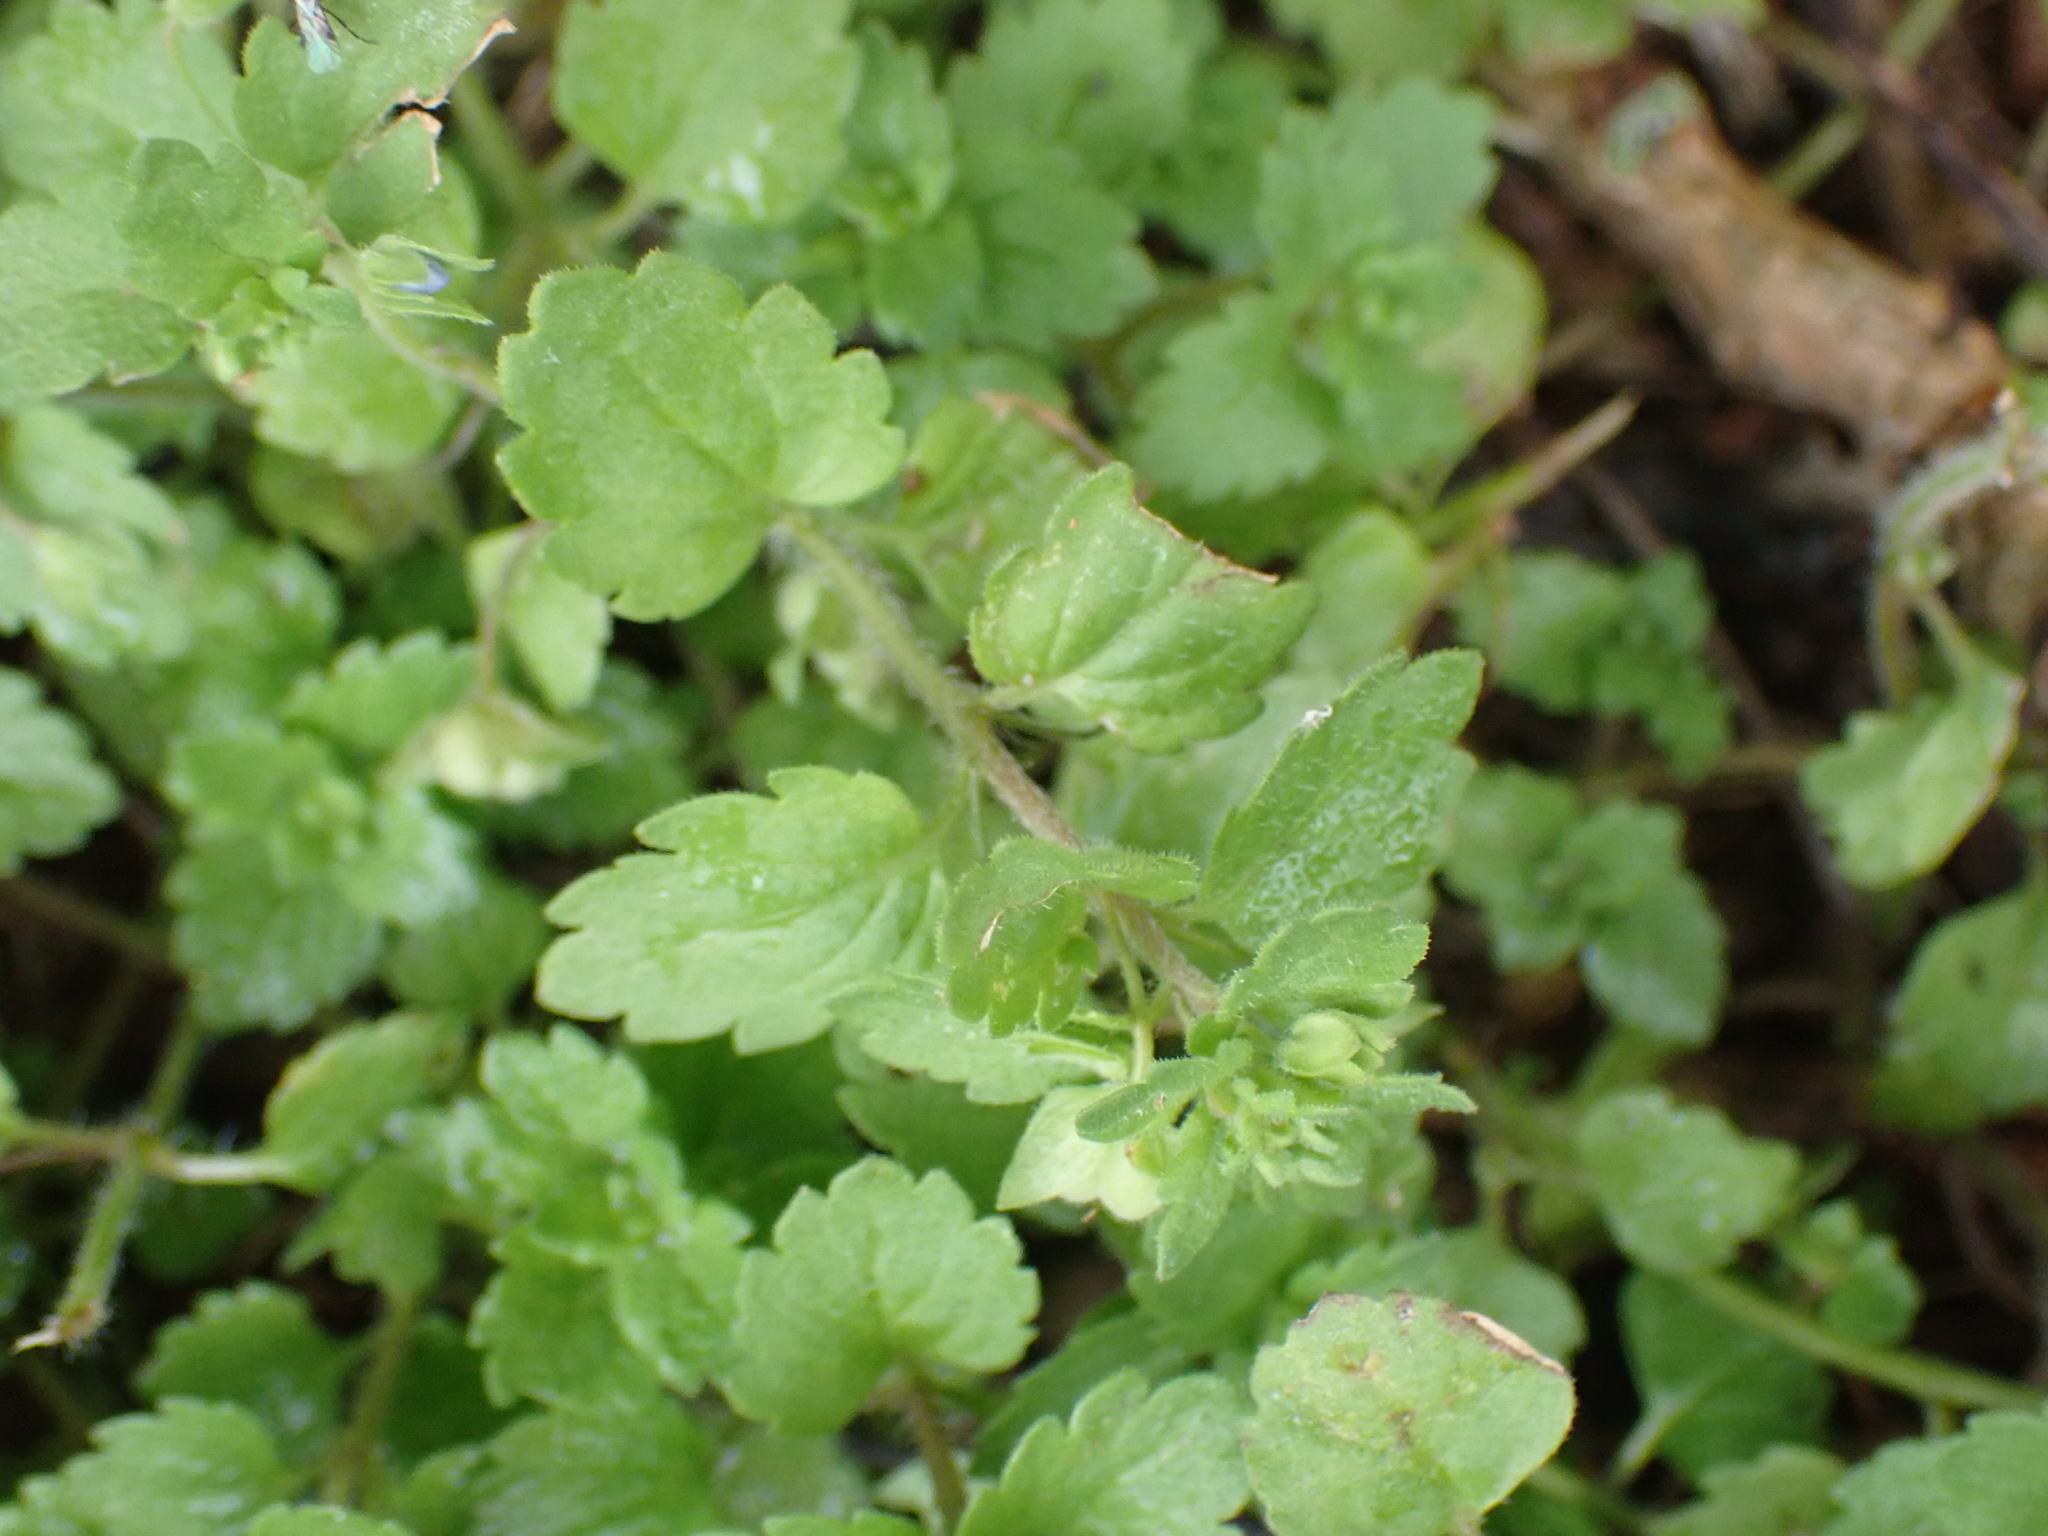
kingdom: Plantae
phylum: Tracheophyta
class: Magnoliopsida
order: Lamiales
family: Plantaginaceae
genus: Veronica
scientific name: Veronica persica
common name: Common field-speedwell
